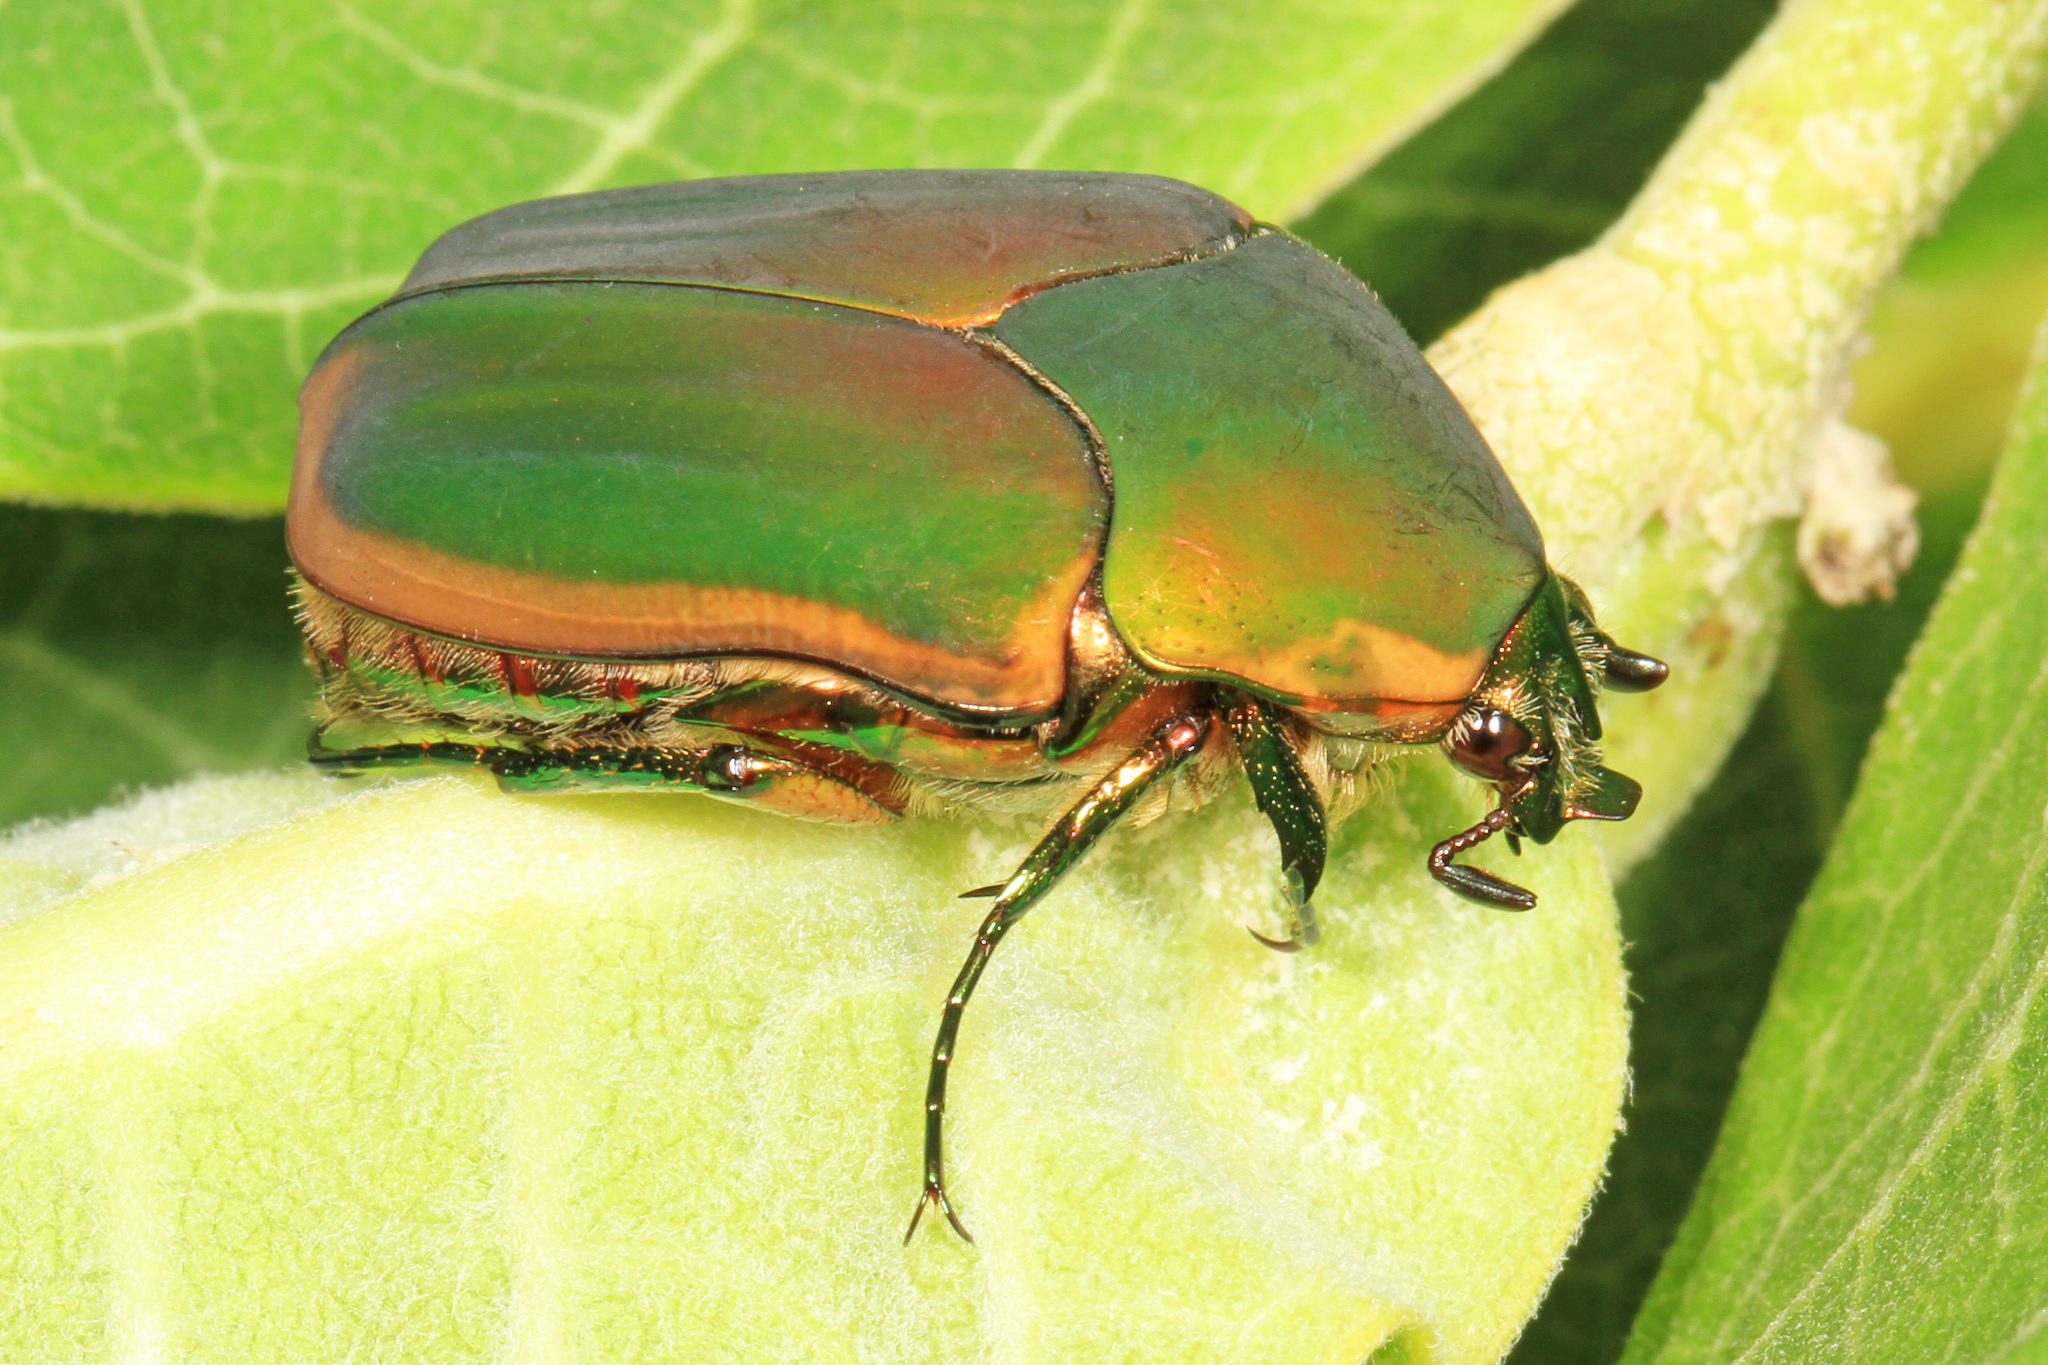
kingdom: Animalia
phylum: Arthropoda
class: Insecta
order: Coleoptera
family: Scarabaeidae
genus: Cotinis
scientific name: Cotinis nitida
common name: Common green june beetle
